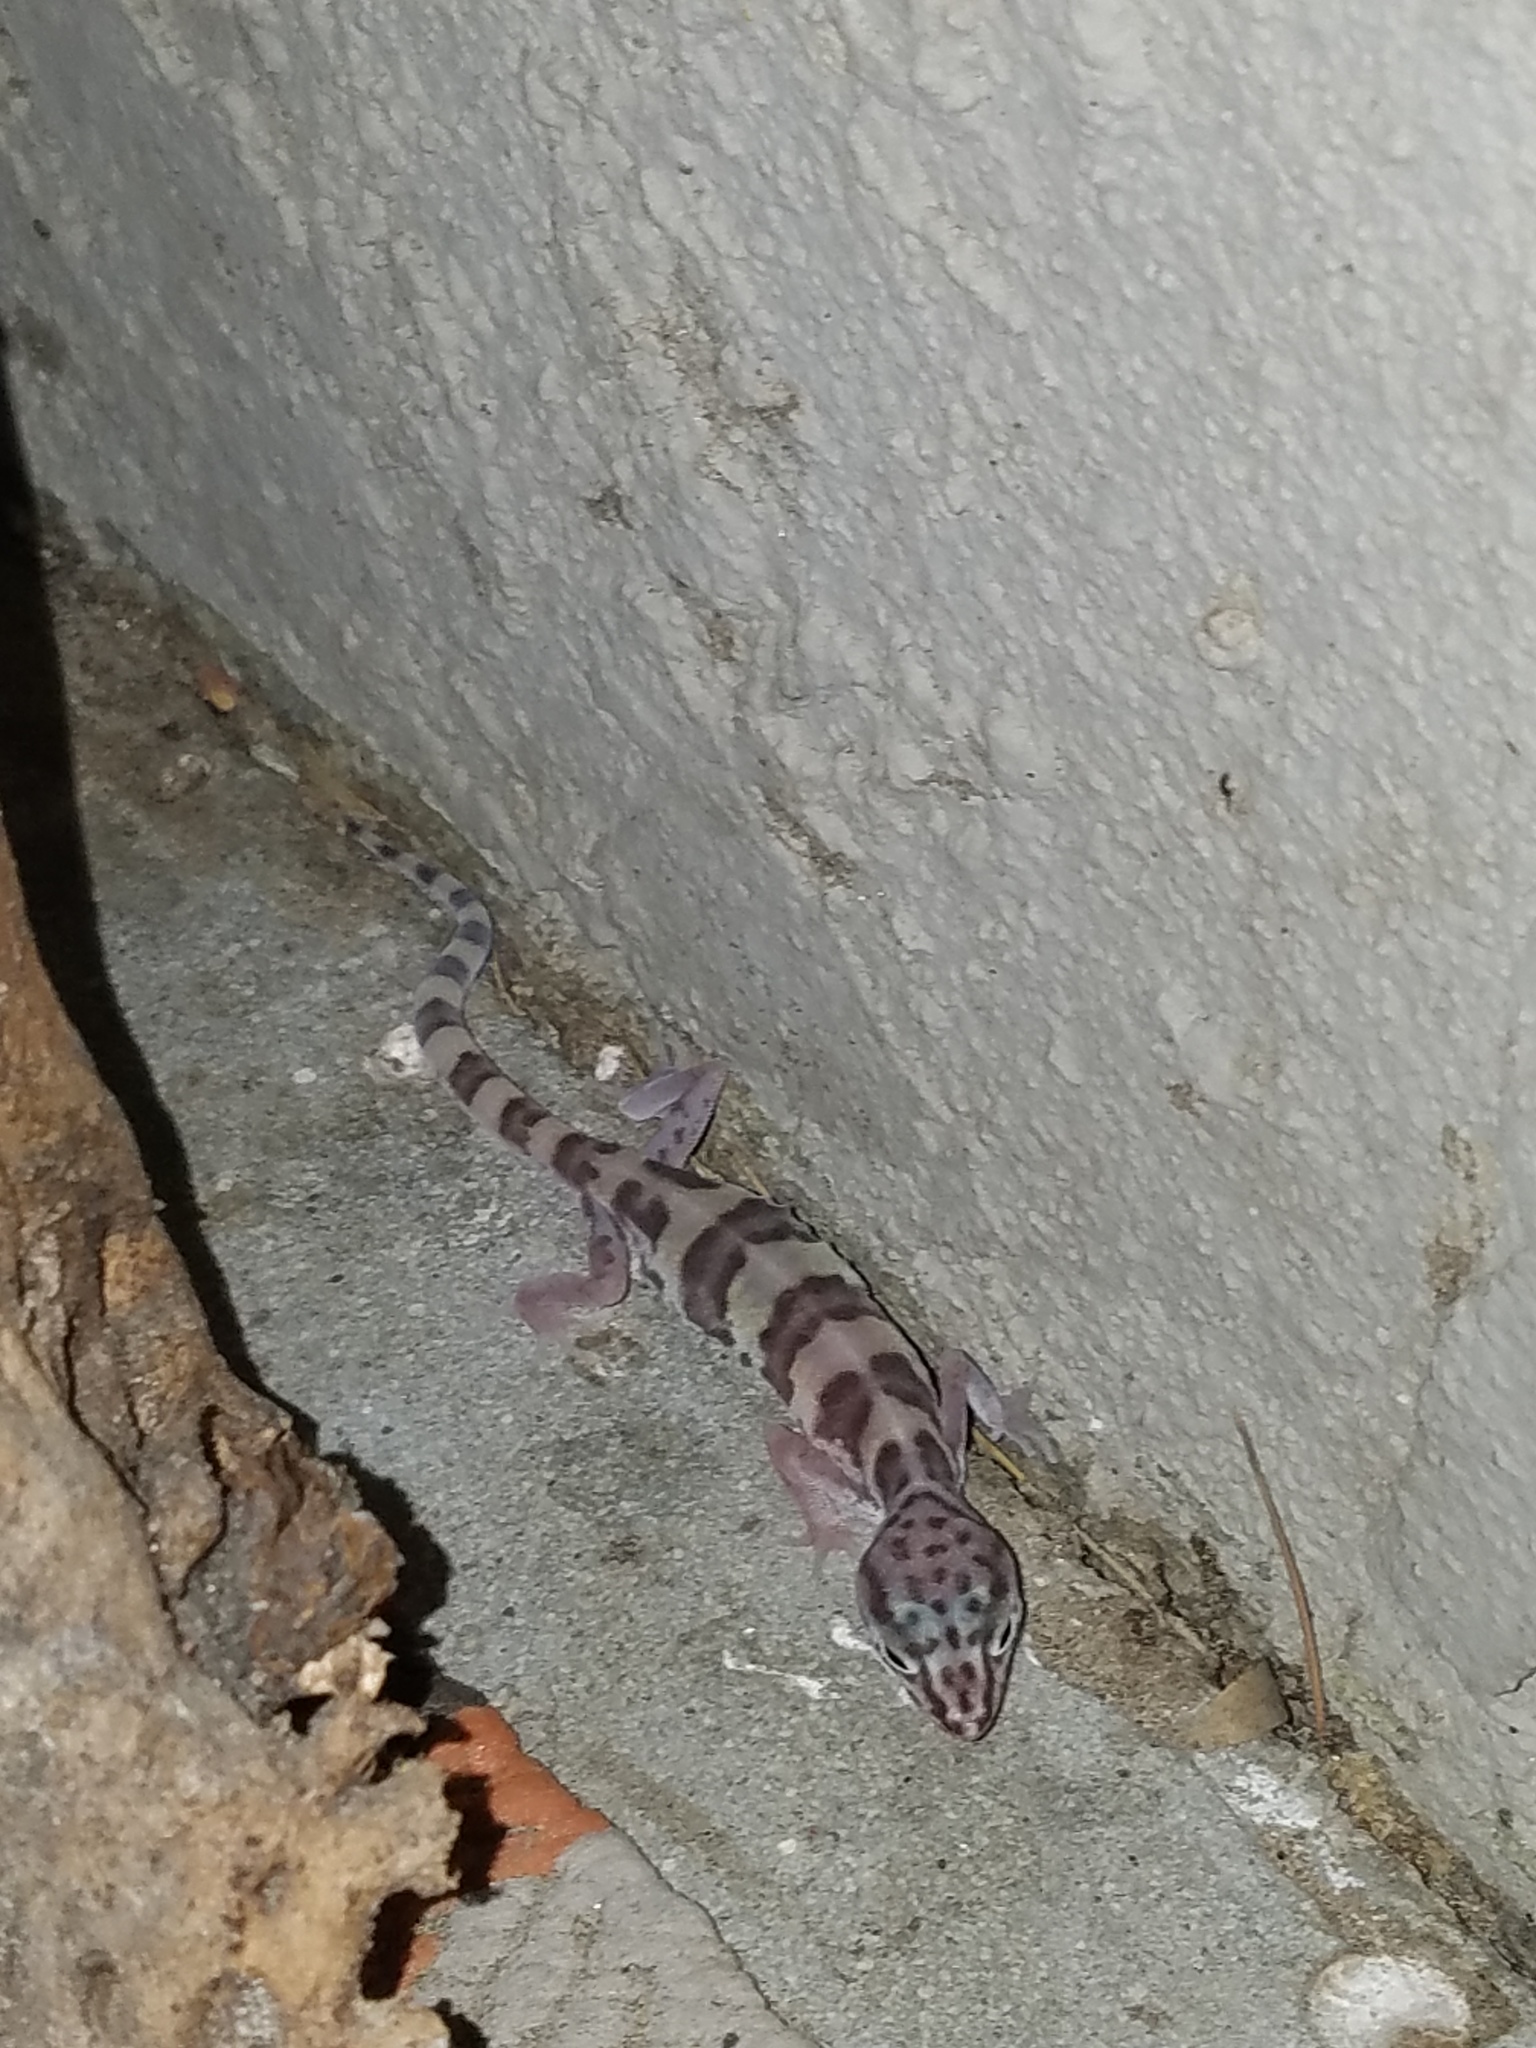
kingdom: Animalia
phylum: Chordata
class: Squamata
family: Eublepharidae
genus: Coleonyx
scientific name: Coleonyx variegatus
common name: Western banded gecko
